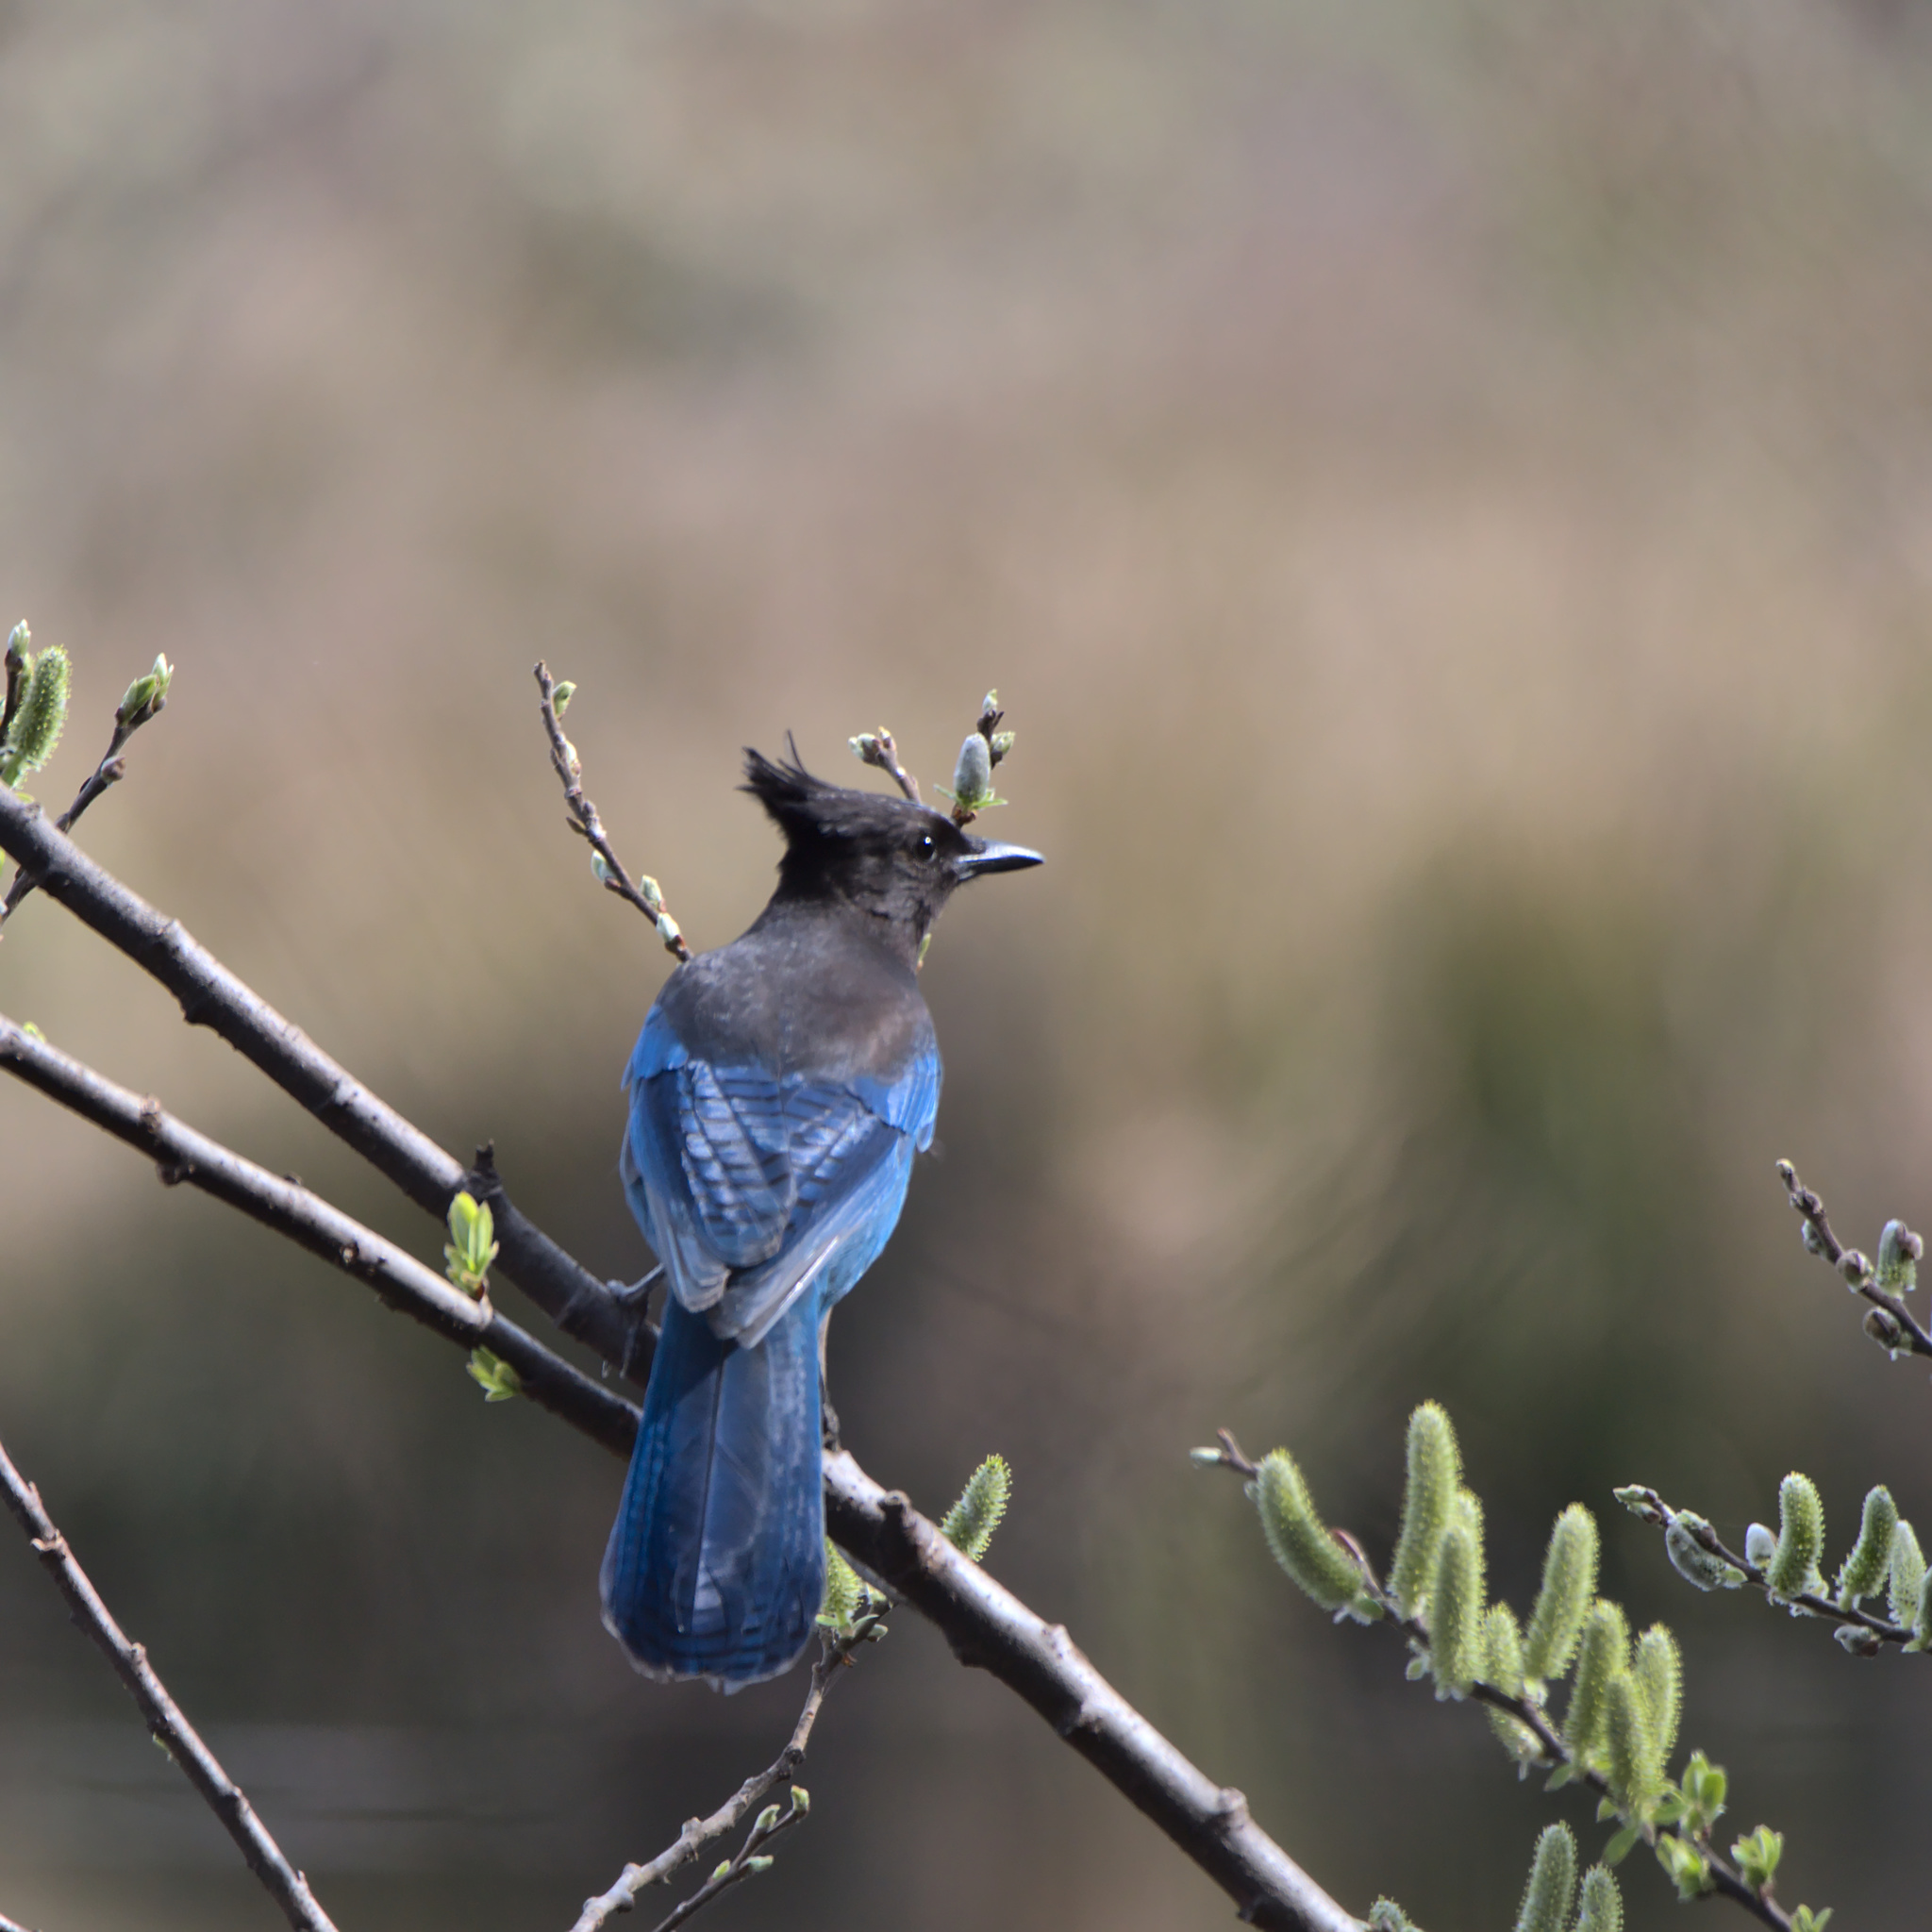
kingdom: Animalia
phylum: Chordata
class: Aves
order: Passeriformes
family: Corvidae
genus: Cyanocitta
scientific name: Cyanocitta stelleri
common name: Steller's jay
